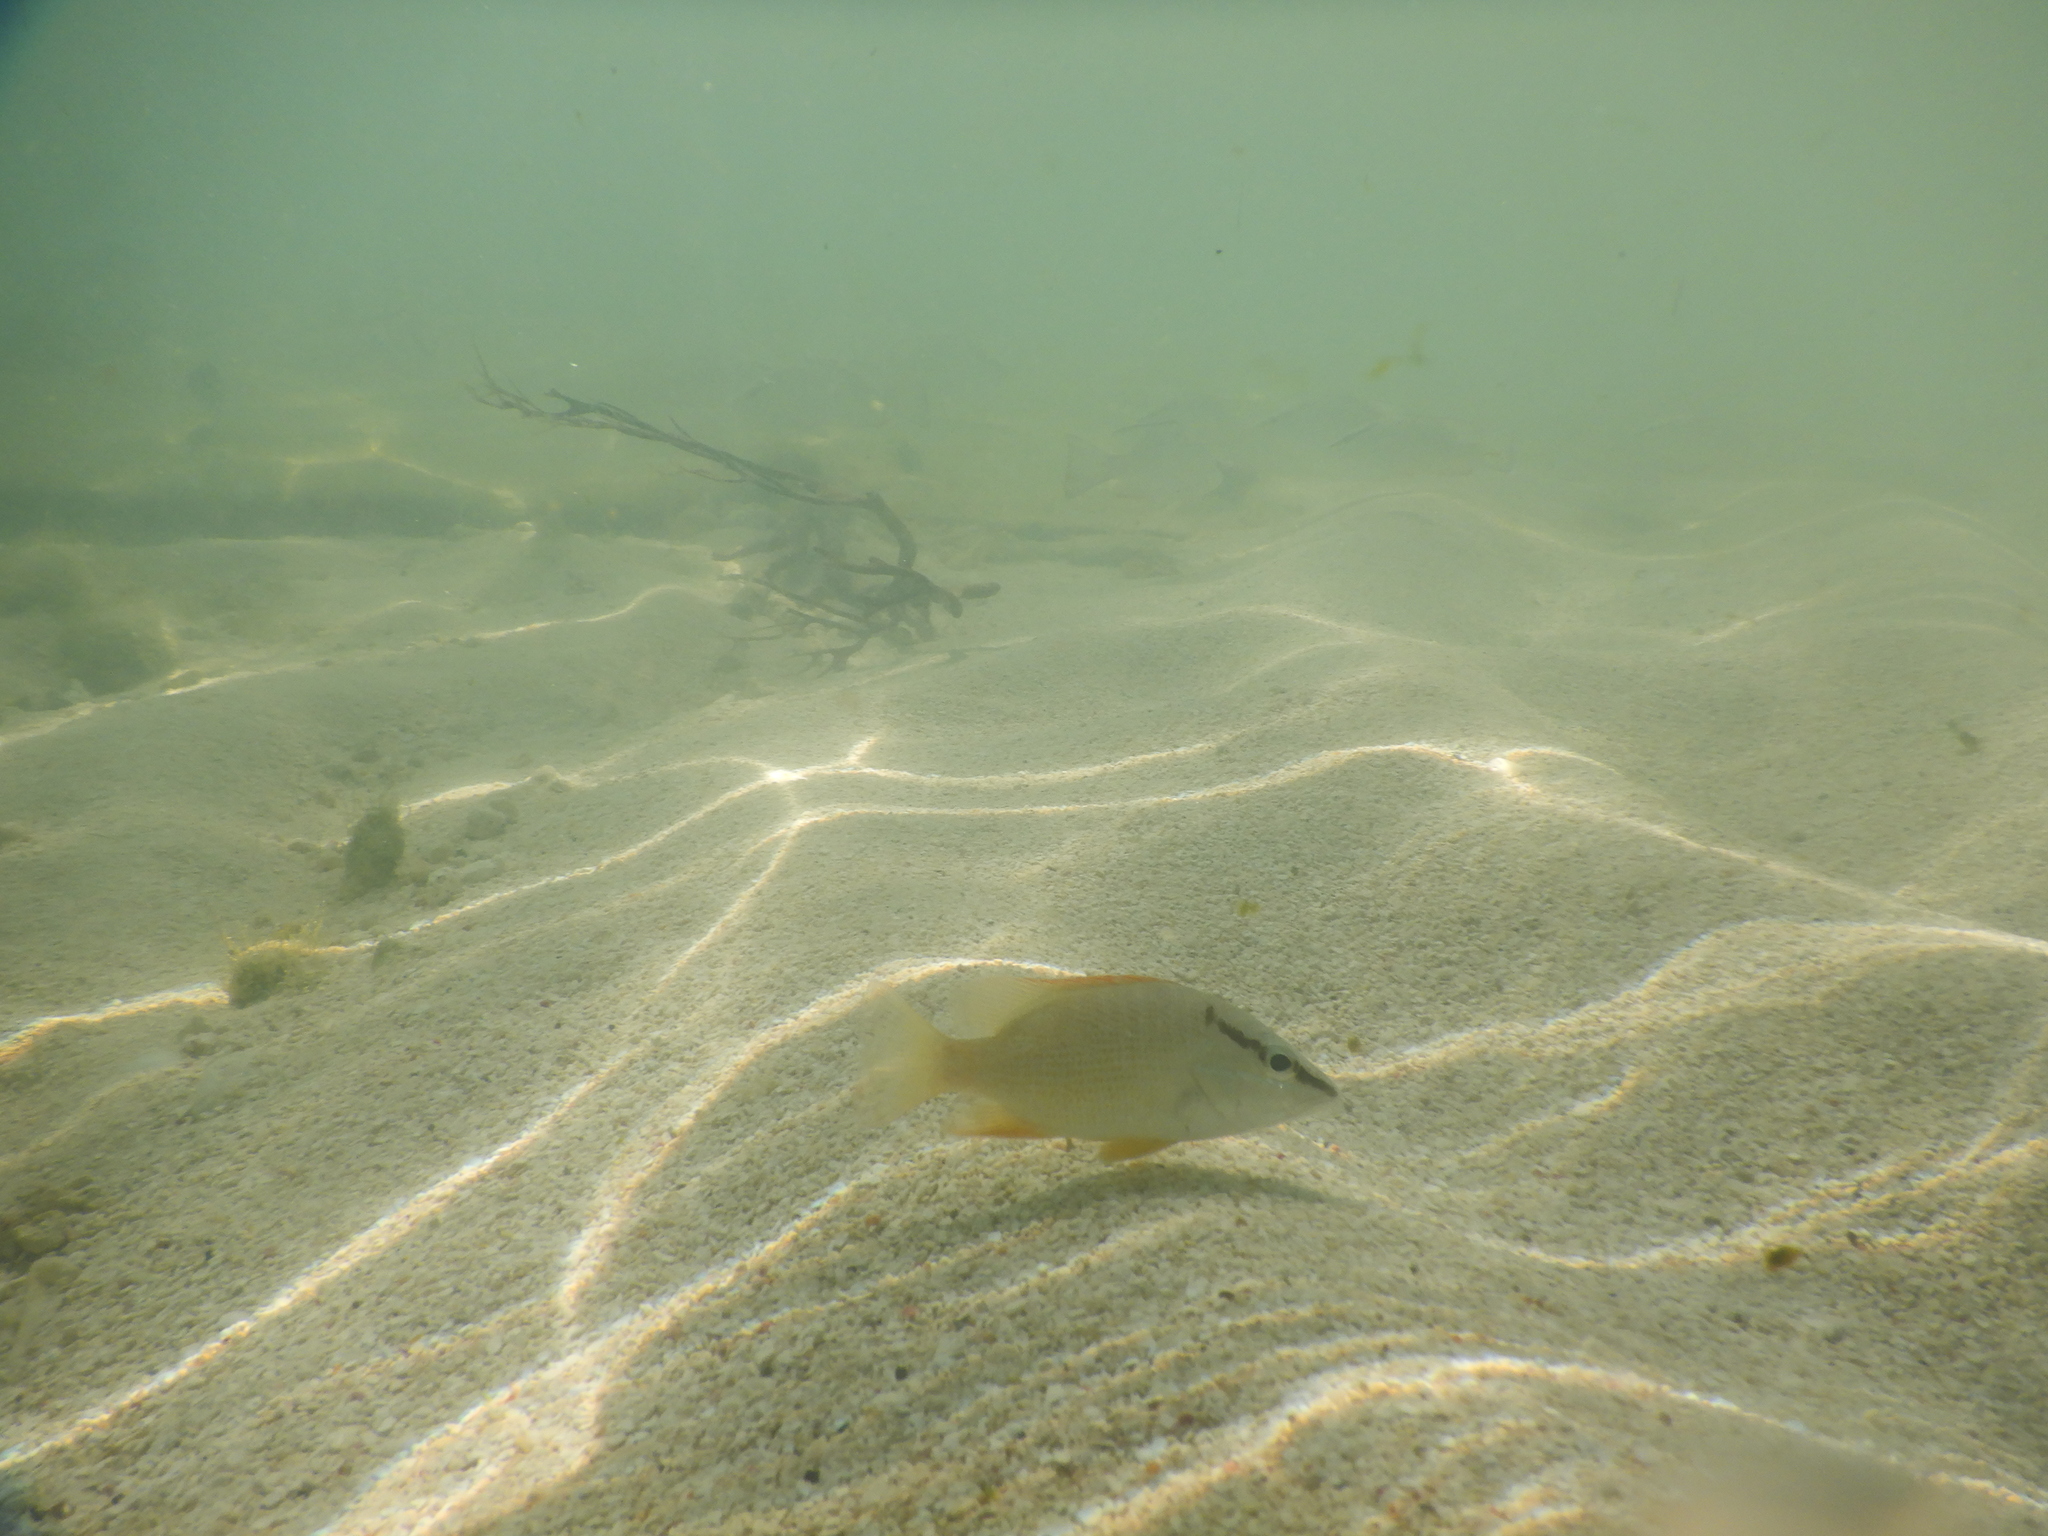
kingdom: Animalia
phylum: Chordata
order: Perciformes
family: Lutjanidae
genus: Lutjanus
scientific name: Lutjanus apodus
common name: Schoolmaster
